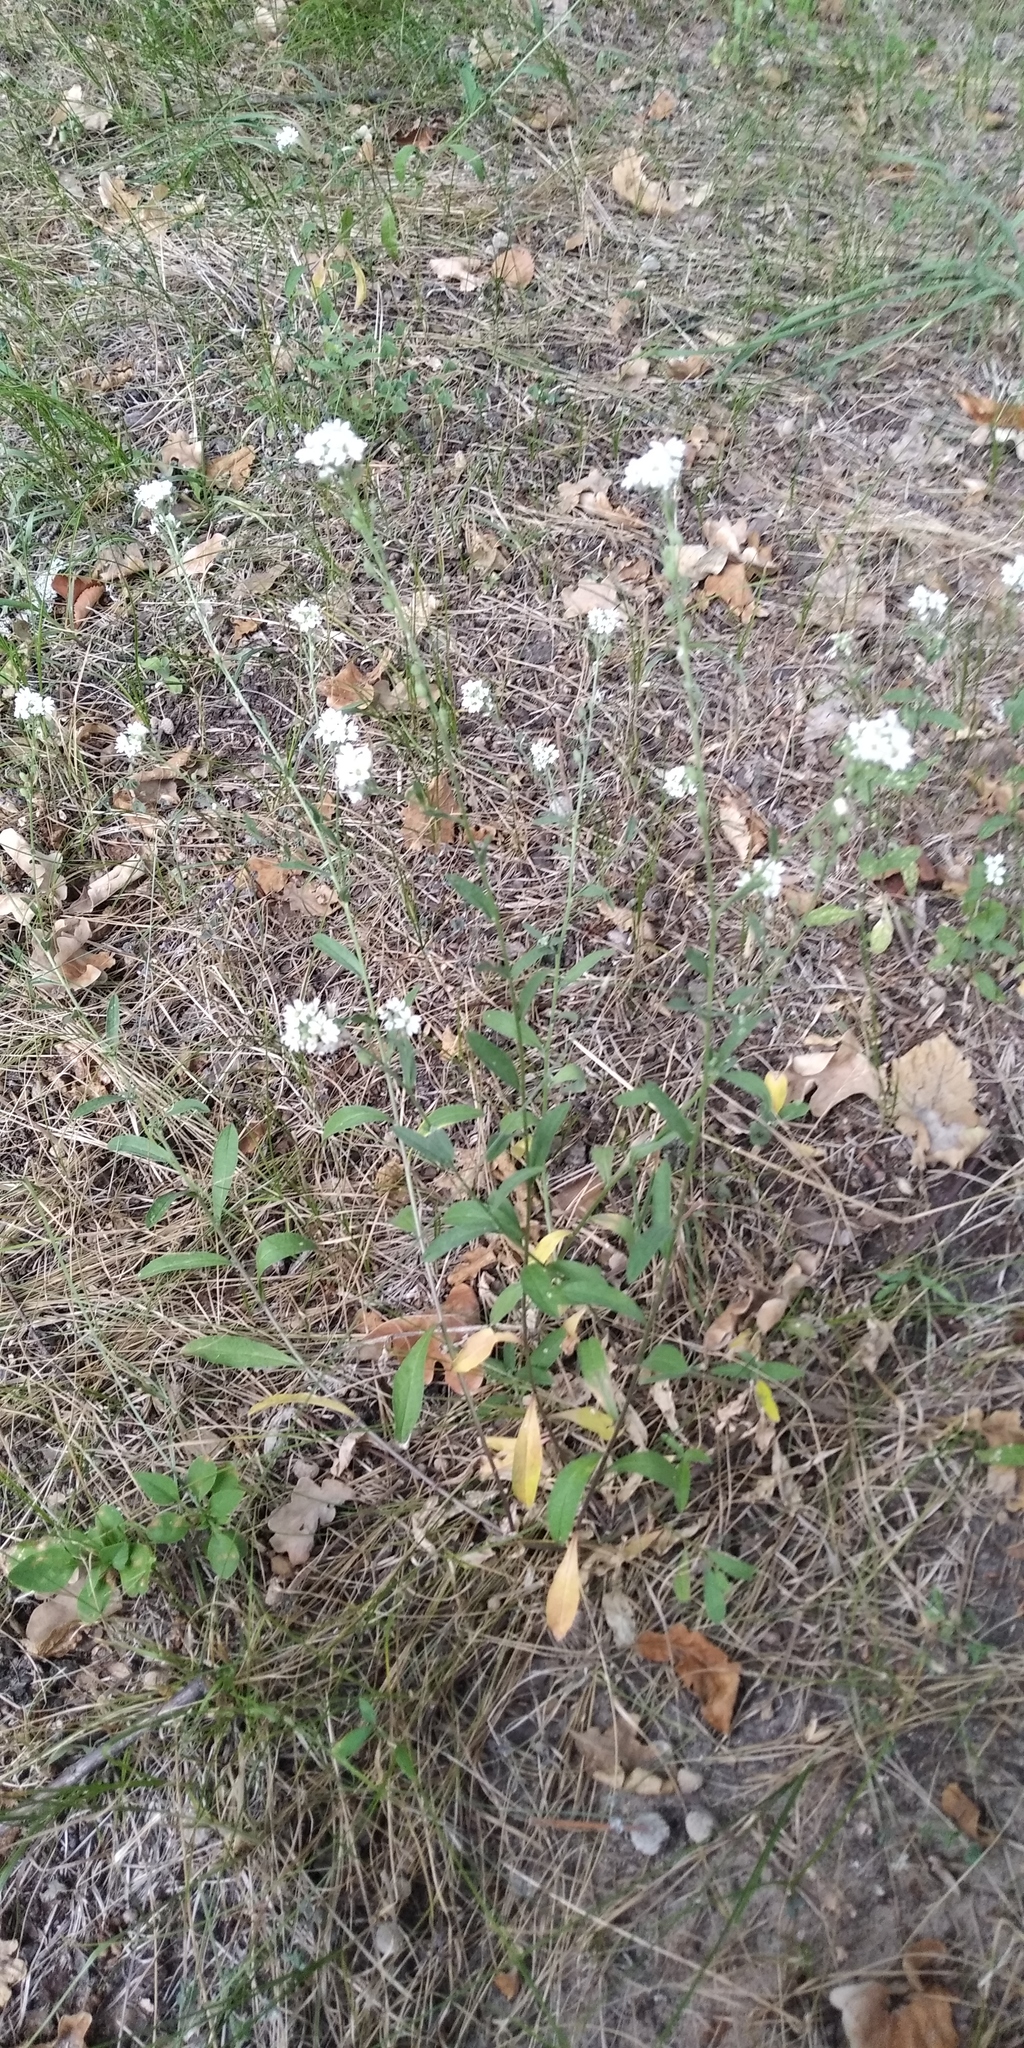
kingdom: Plantae
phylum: Tracheophyta
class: Magnoliopsida
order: Brassicales
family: Brassicaceae
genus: Berteroa
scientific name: Berteroa incana
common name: Hoary alison
